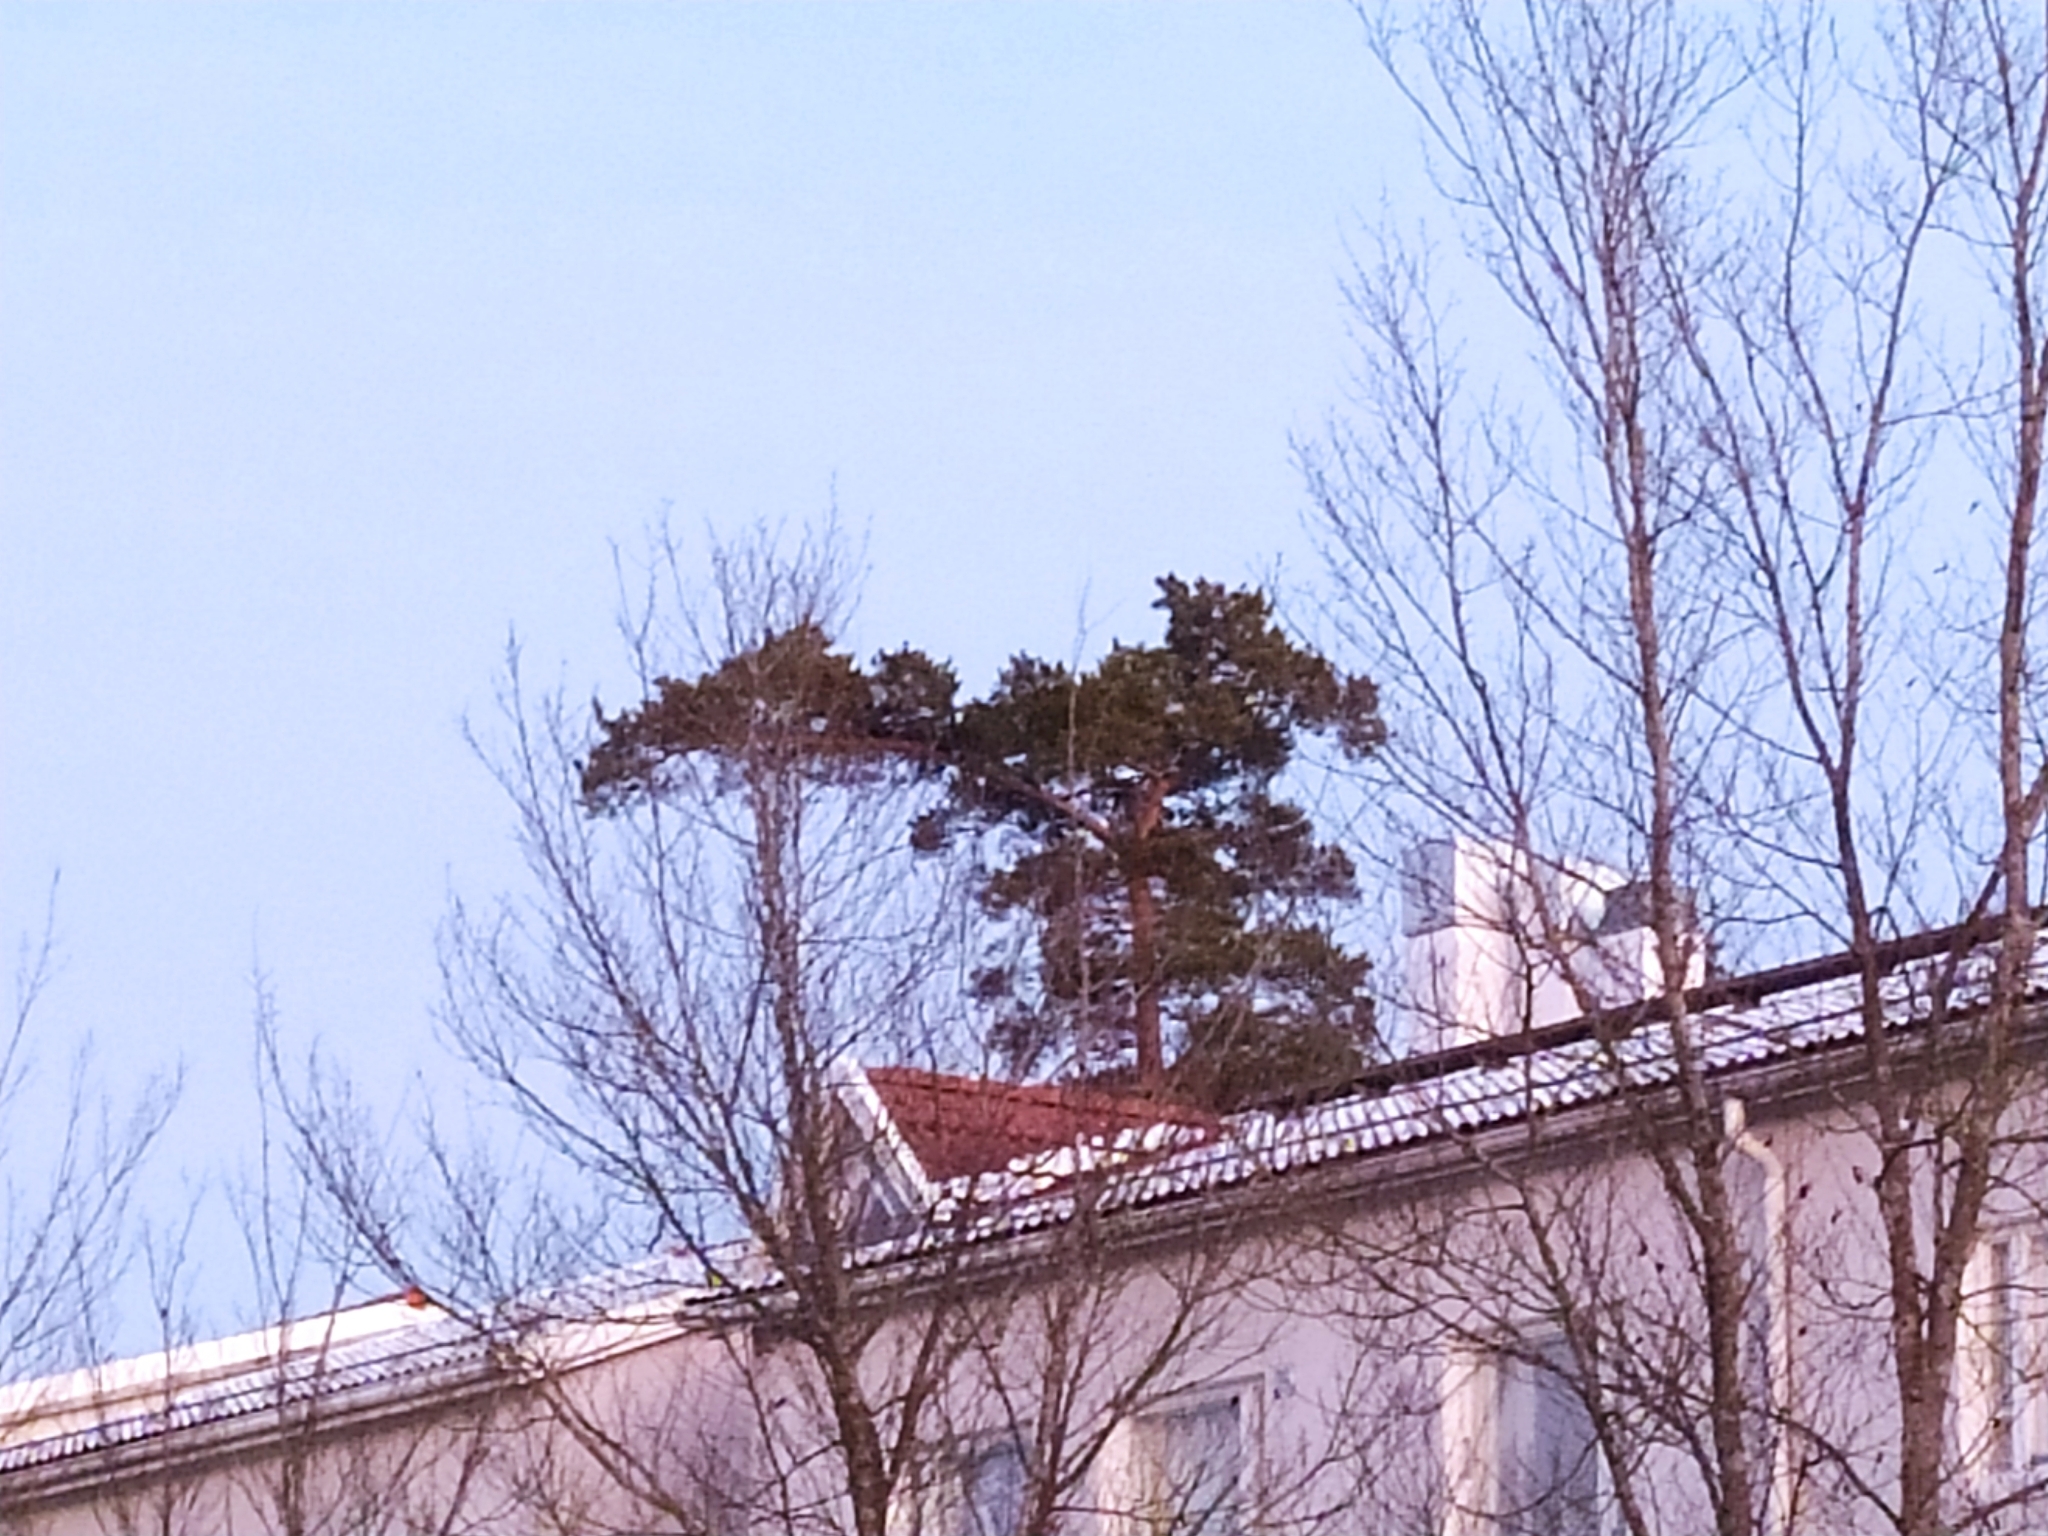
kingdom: Plantae
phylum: Tracheophyta
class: Pinopsida
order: Pinales
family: Pinaceae
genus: Pinus
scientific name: Pinus sylvestris
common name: Scots pine
